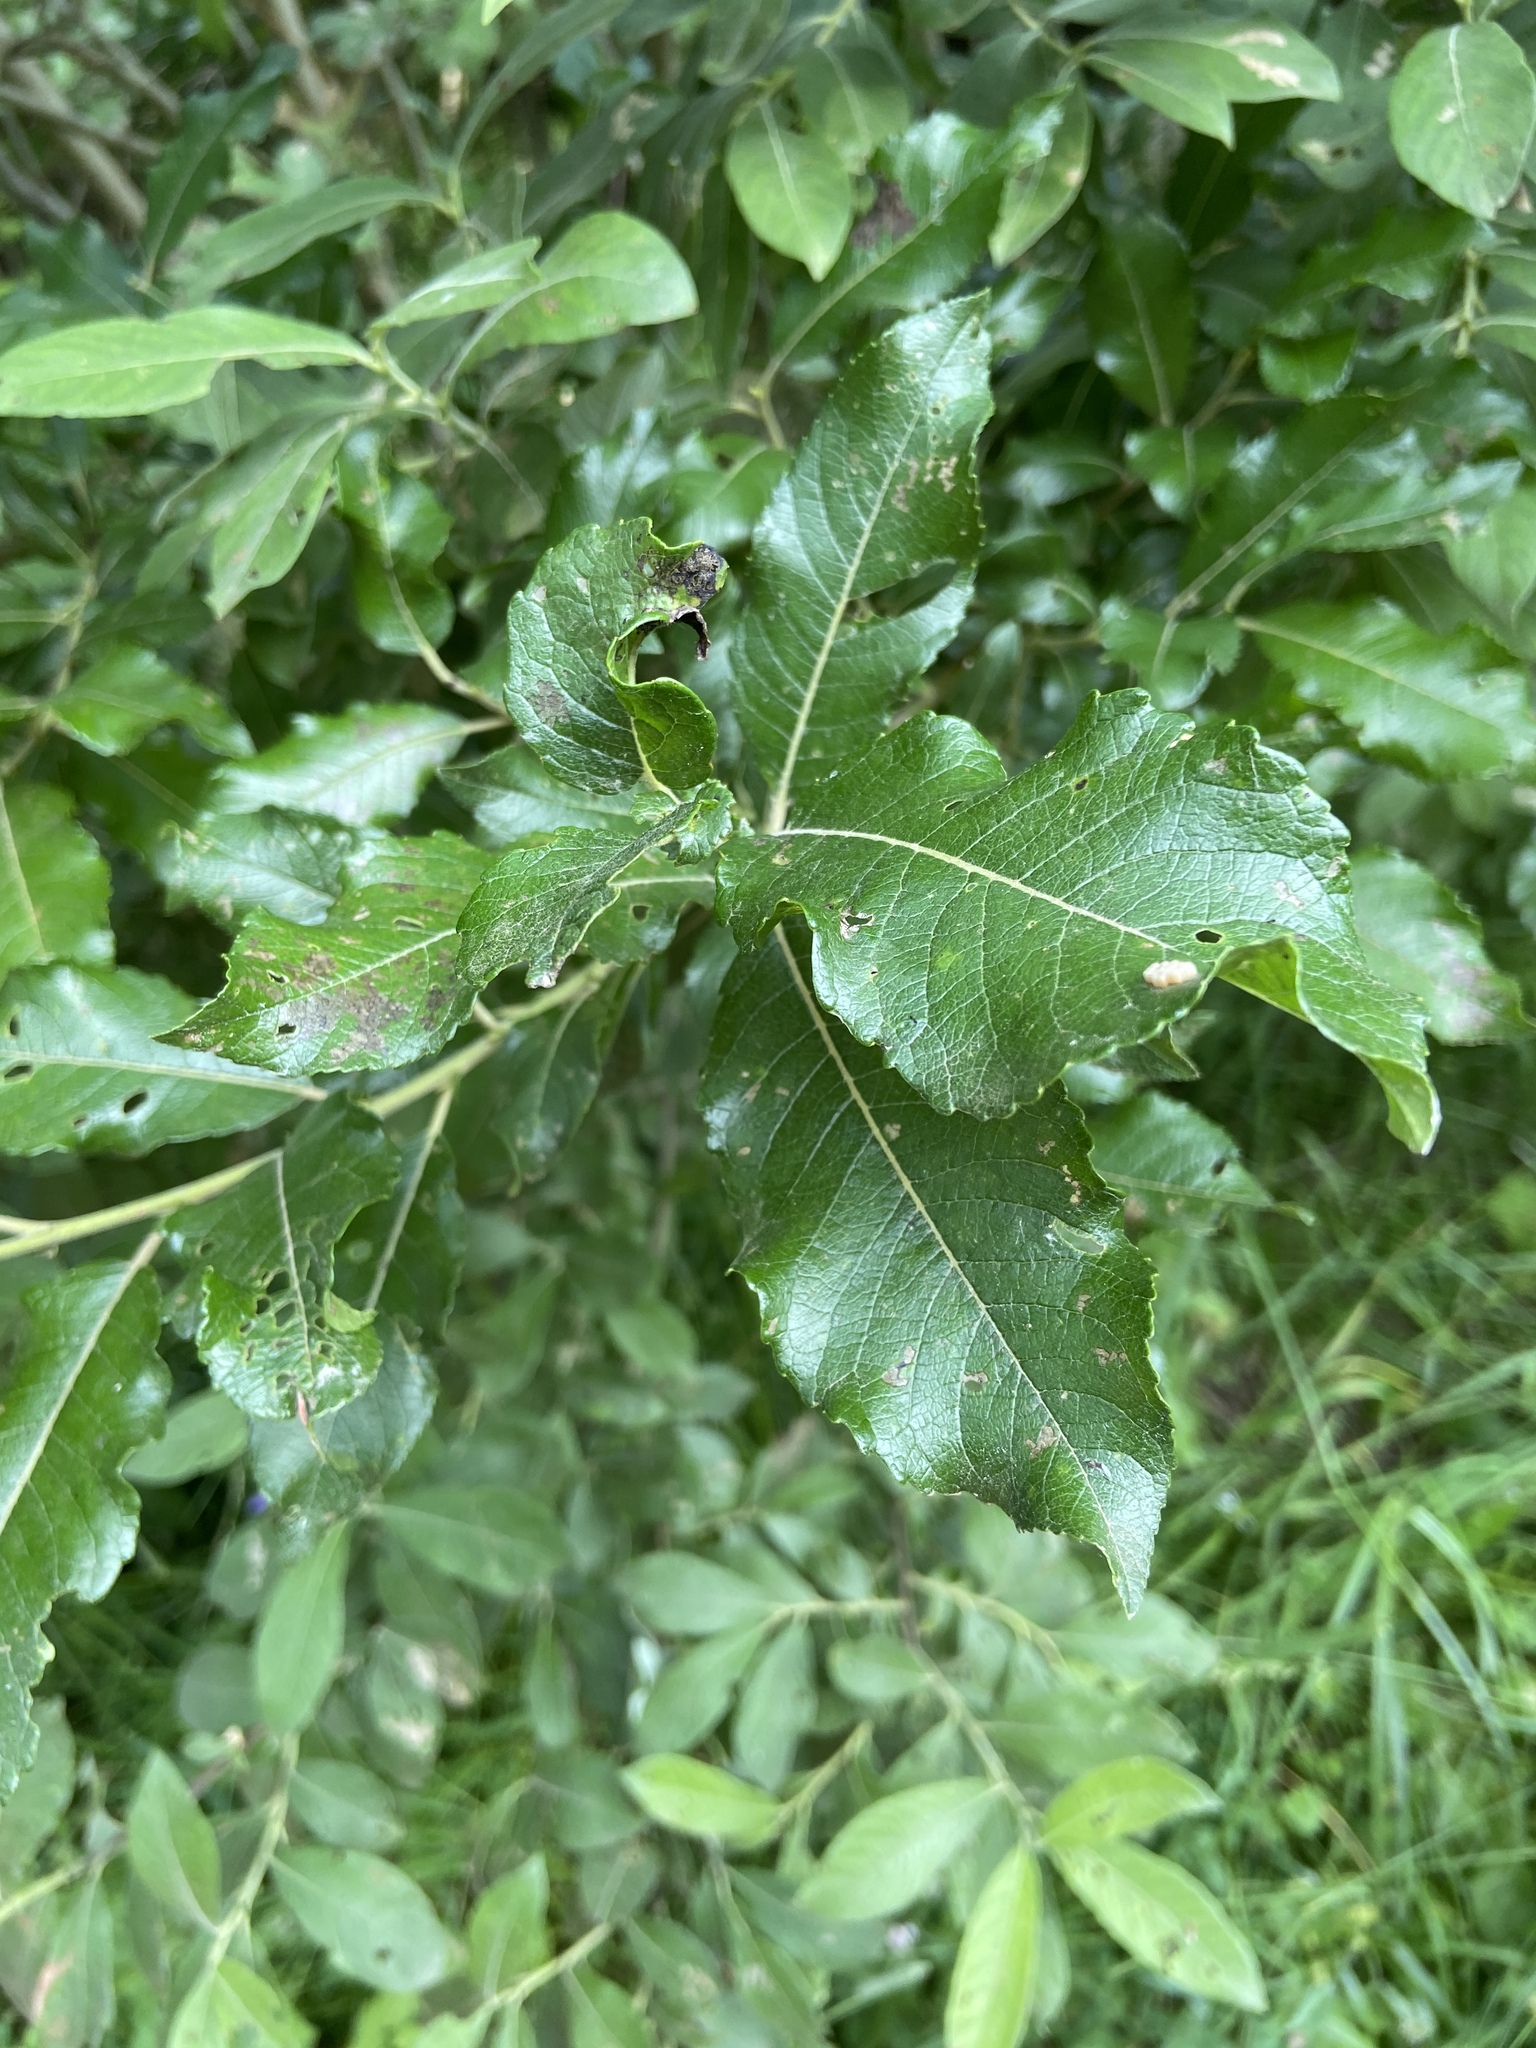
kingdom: Plantae
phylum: Tracheophyta
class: Magnoliopsida
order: Malpighiales
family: Salicaceae
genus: Salix
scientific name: Salix myrsinifolia
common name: Dark-leaved willow
